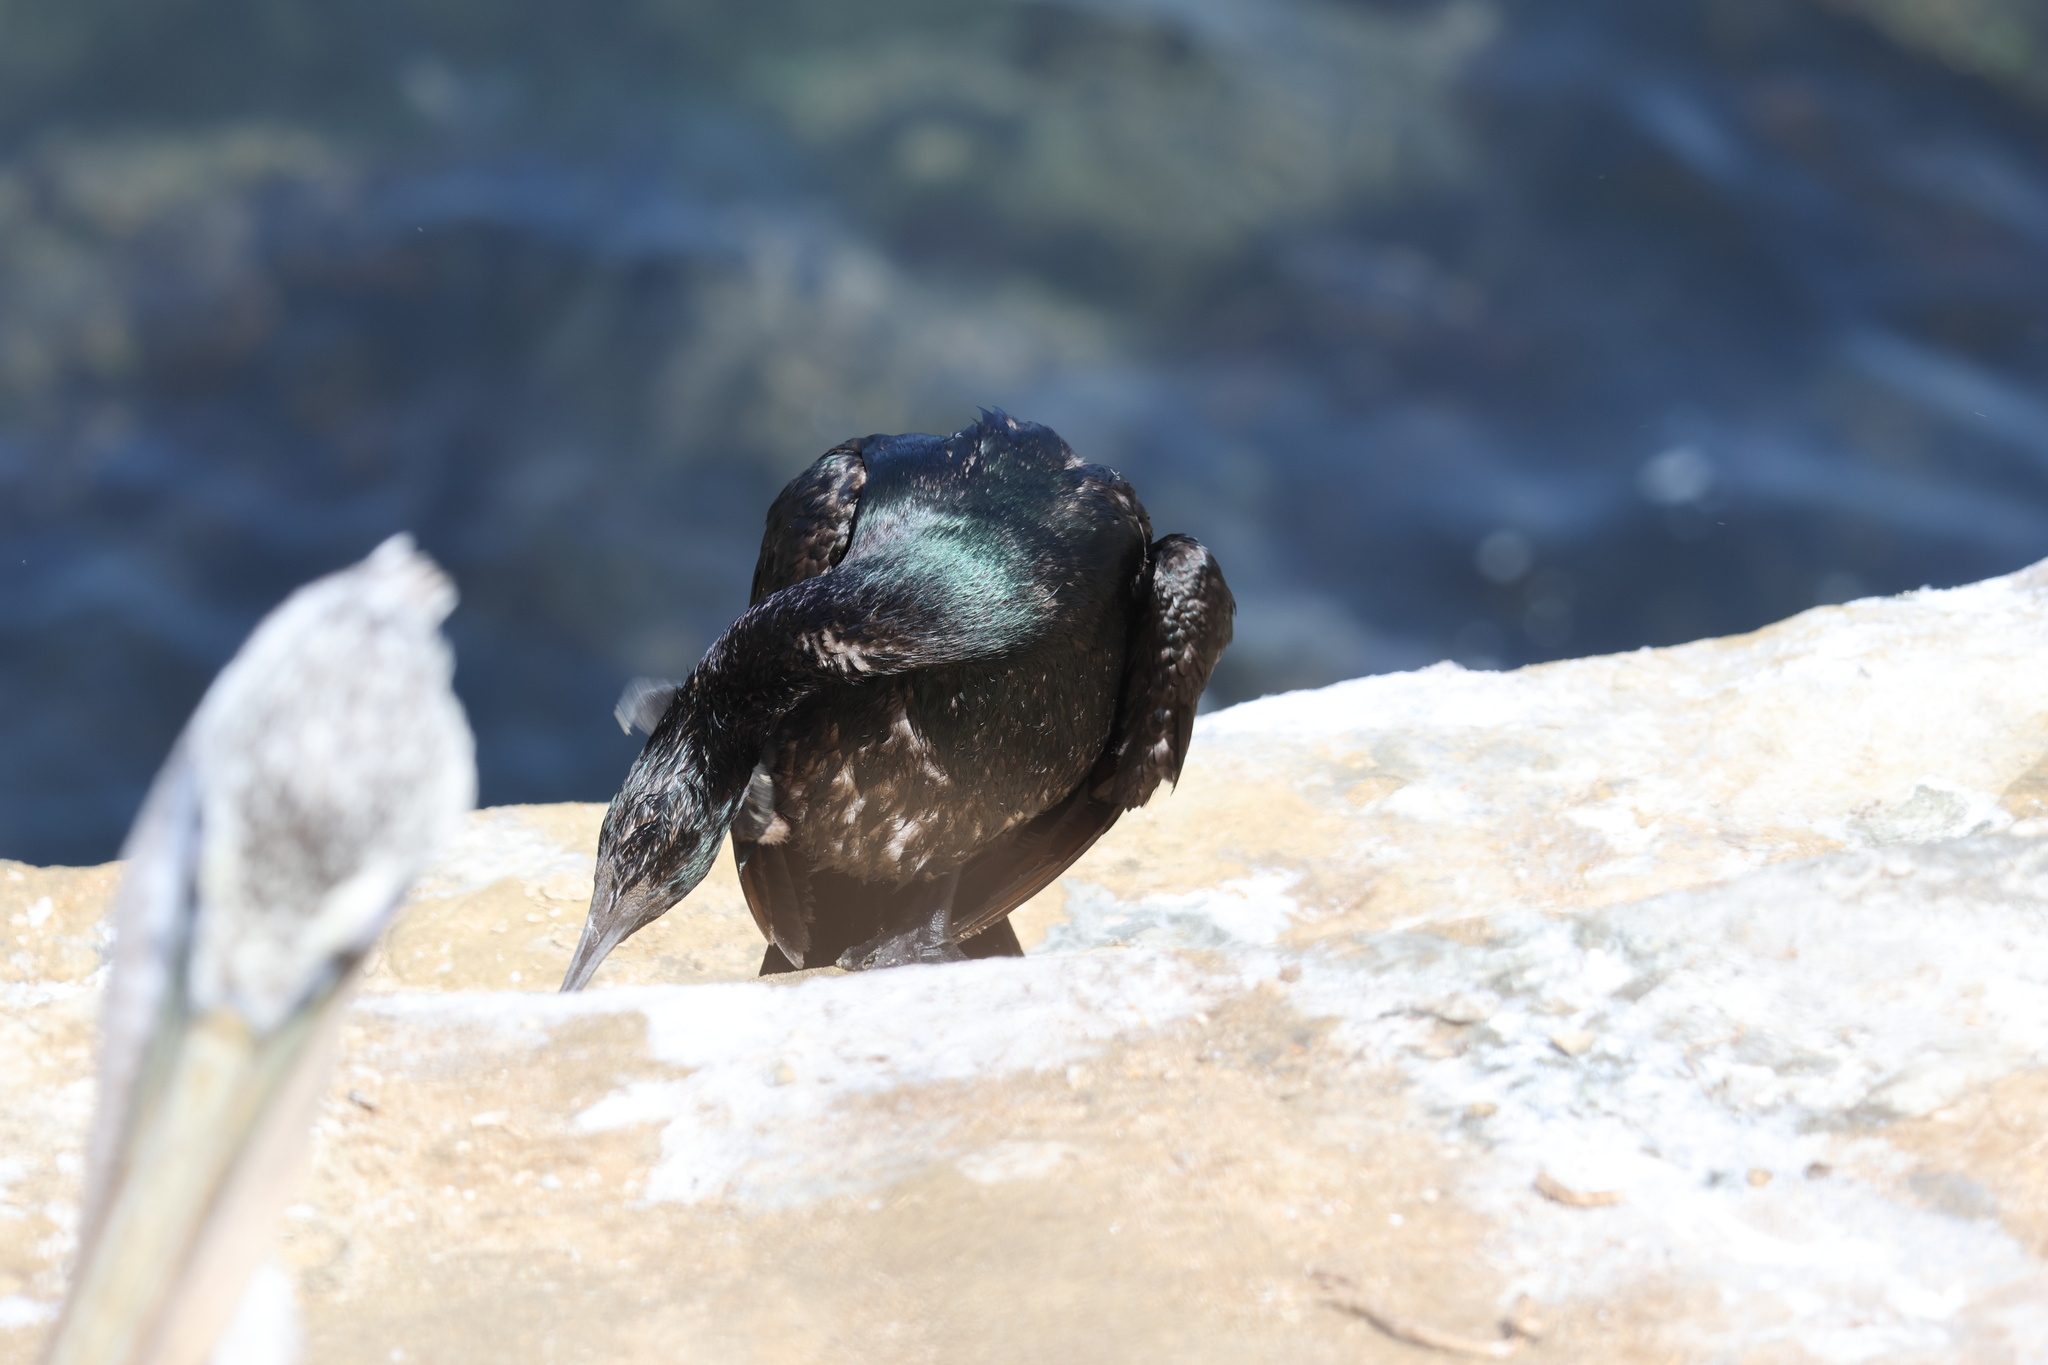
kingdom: Animalia
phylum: Chordata
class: Aves
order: Suliformes
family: Phalacrocoracidae
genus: Phalacrocorax
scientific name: Phalacrocorax pelagicus
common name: Pelagic cormorant
